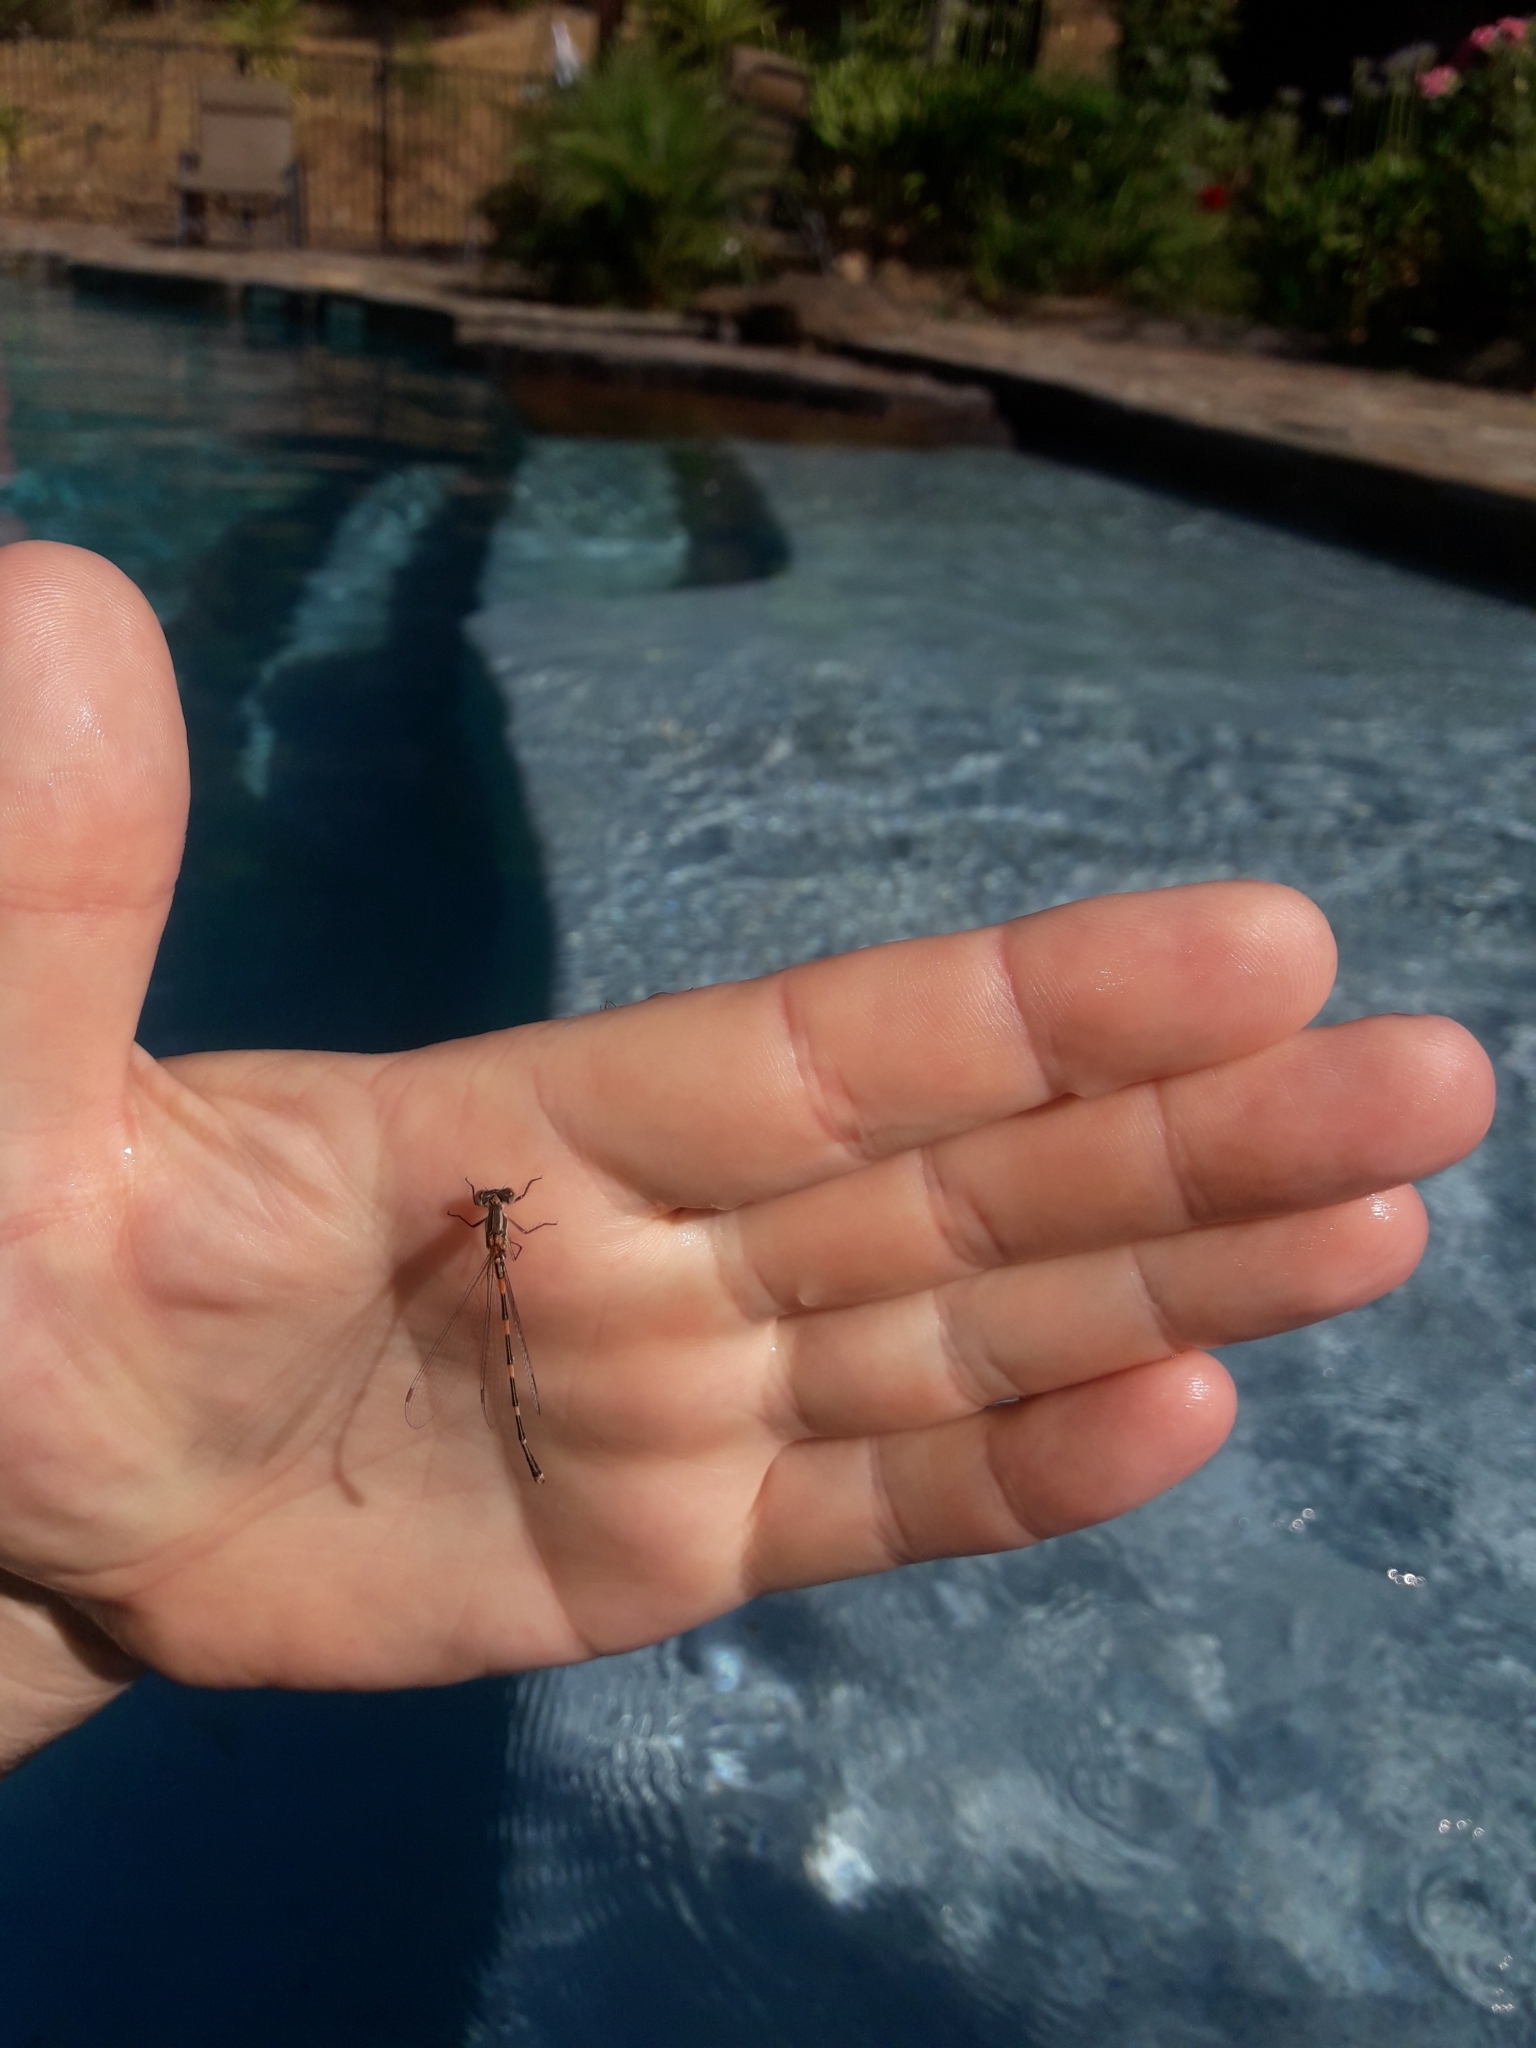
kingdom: Animalia
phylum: Arthropoda
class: Insecta
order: Odonata
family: Lestidae
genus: Austrolestes
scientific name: Austrolestes leda
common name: Wandering ringtail
